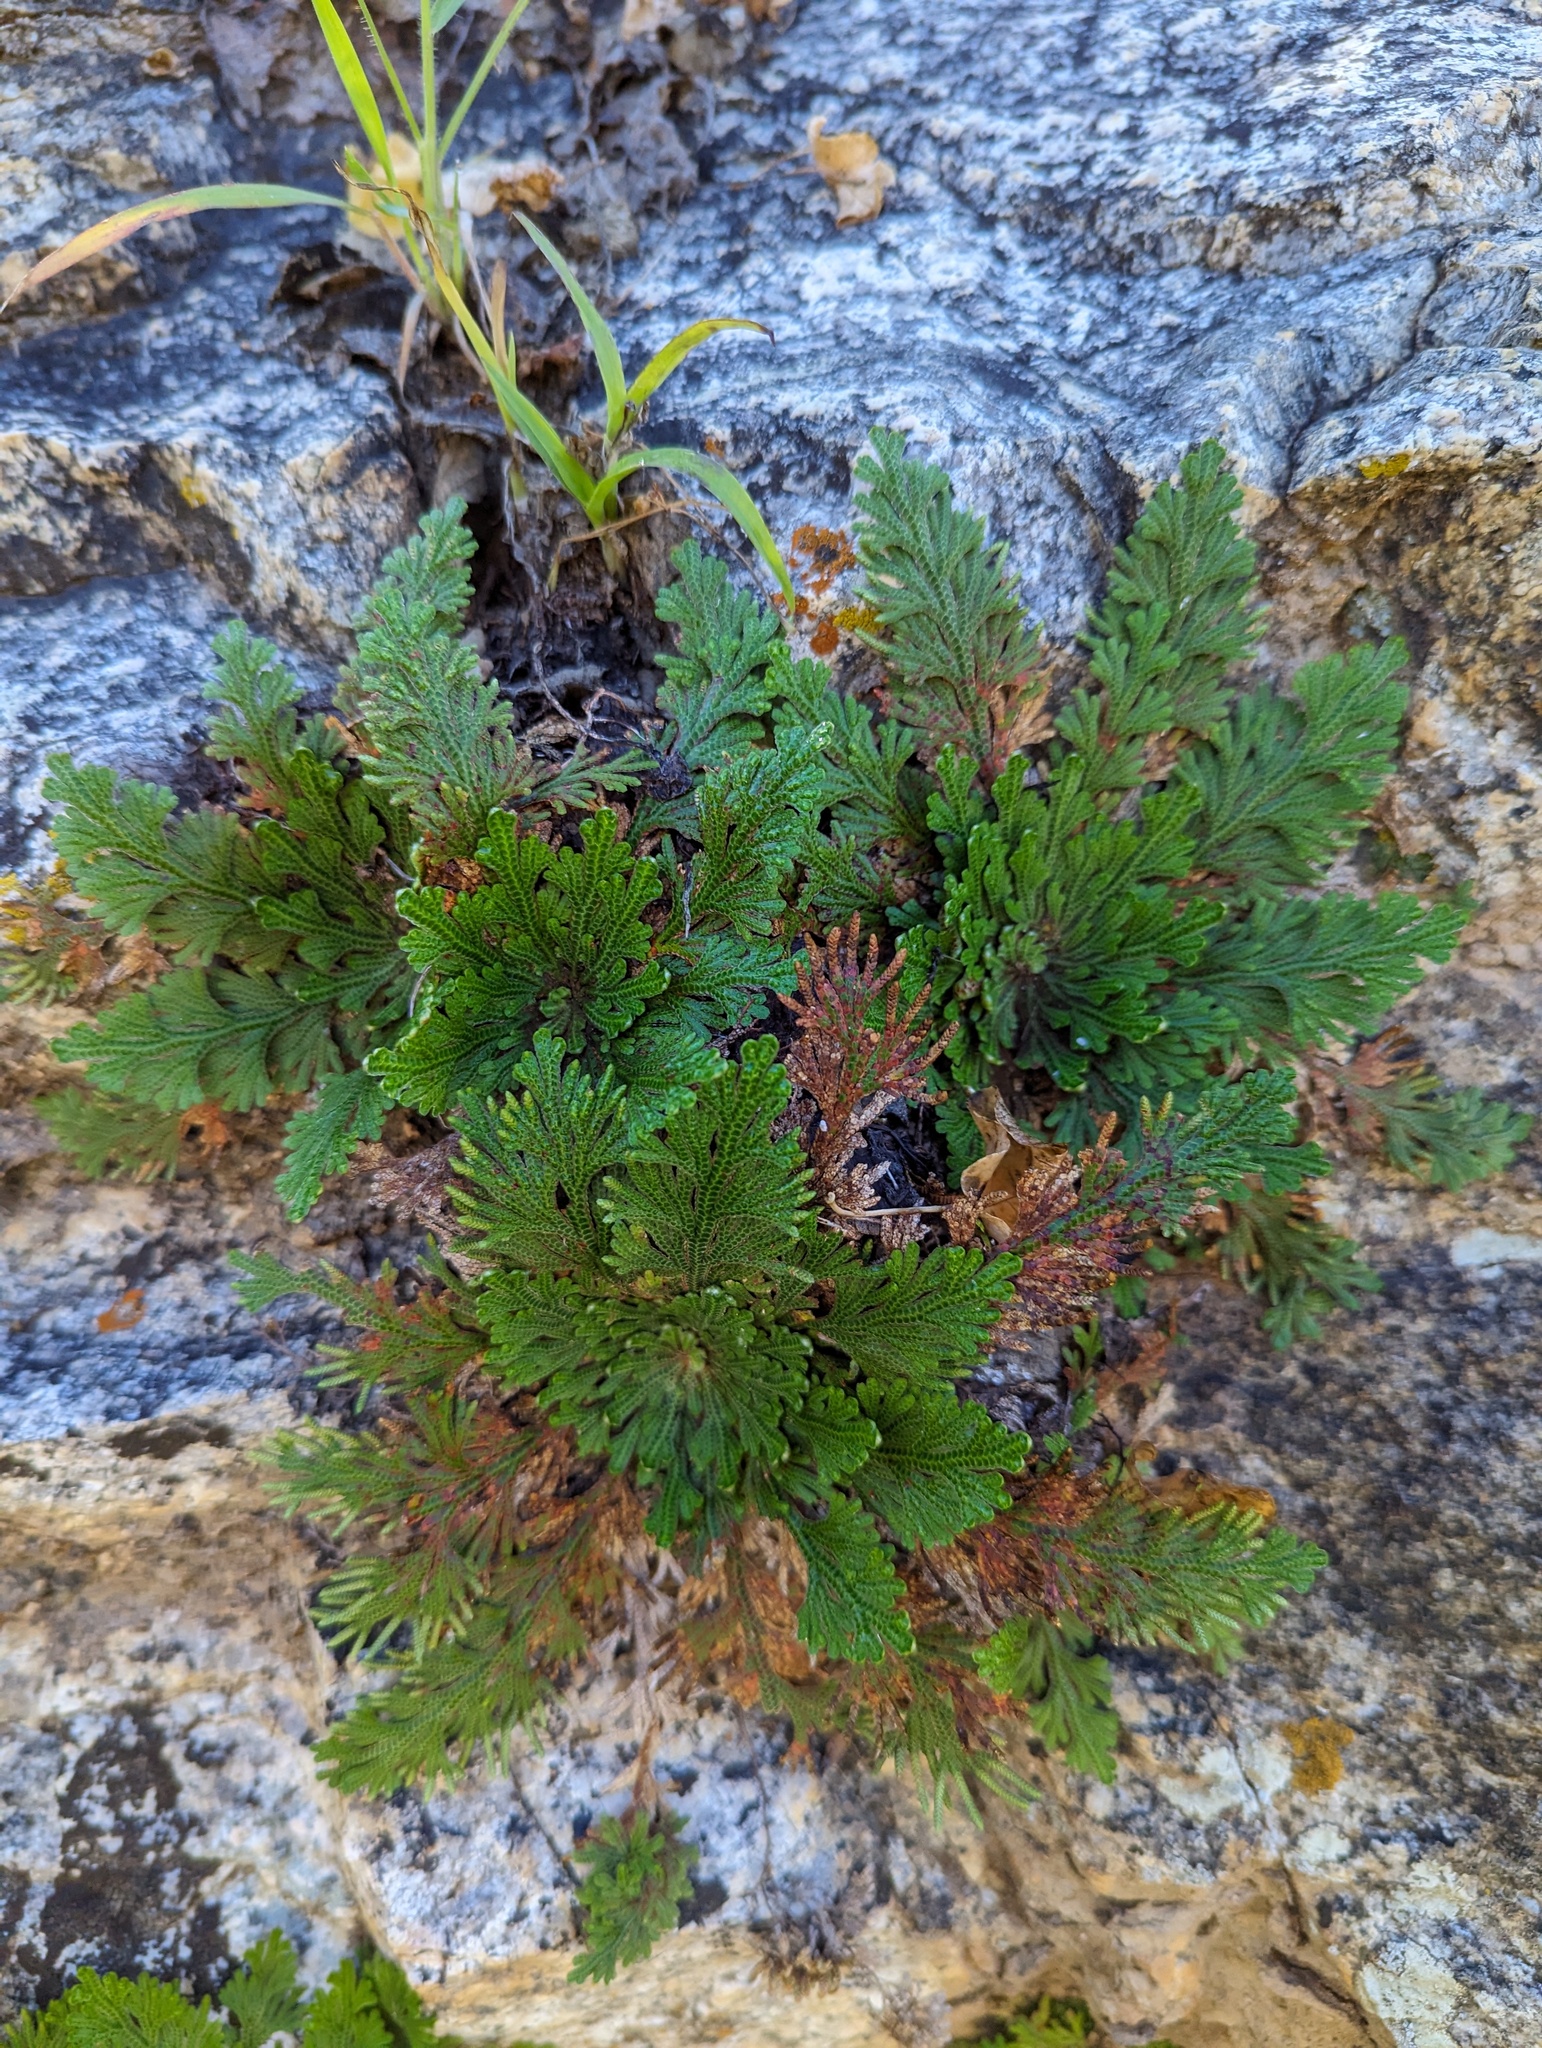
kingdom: Plantae
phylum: Tracheophyta
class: Lycopodiopsida
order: Selaginellales
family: Selaginellaceae
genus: Selaginella
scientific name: Selaginella lepidophylla
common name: Rose-of-jericho
